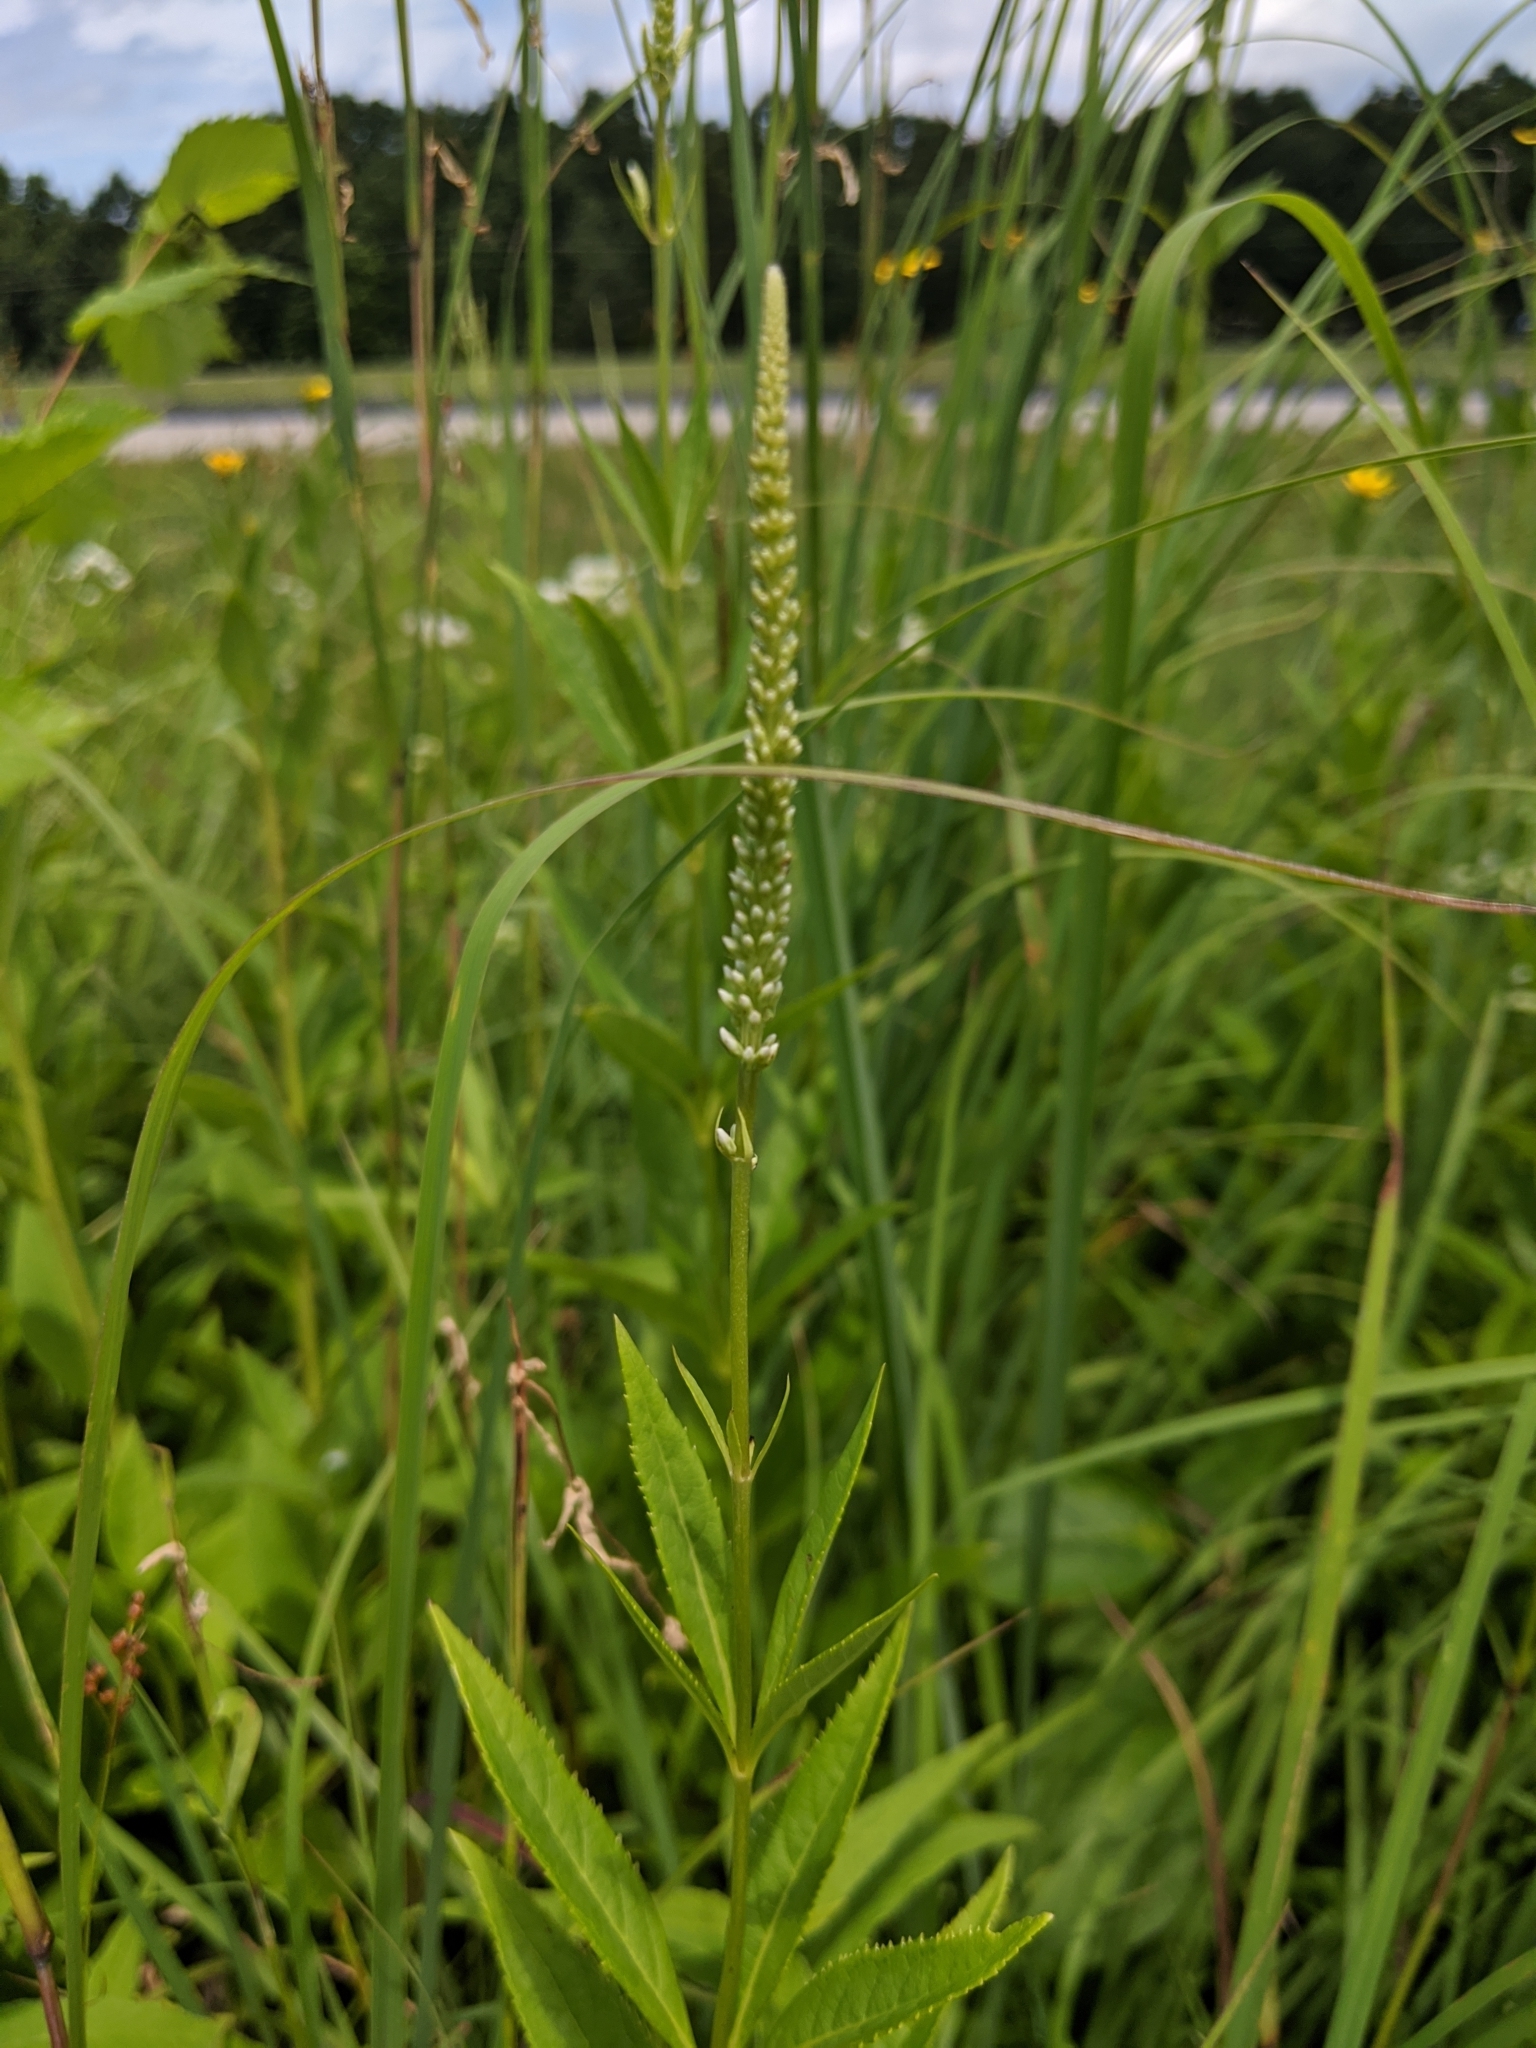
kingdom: Plantae
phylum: Tracheophyta
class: Magnoliopsida
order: Lamiales
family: Plantaginaceae
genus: Veronicastrum
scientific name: Veronicastrum virginicum
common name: Blackroot
